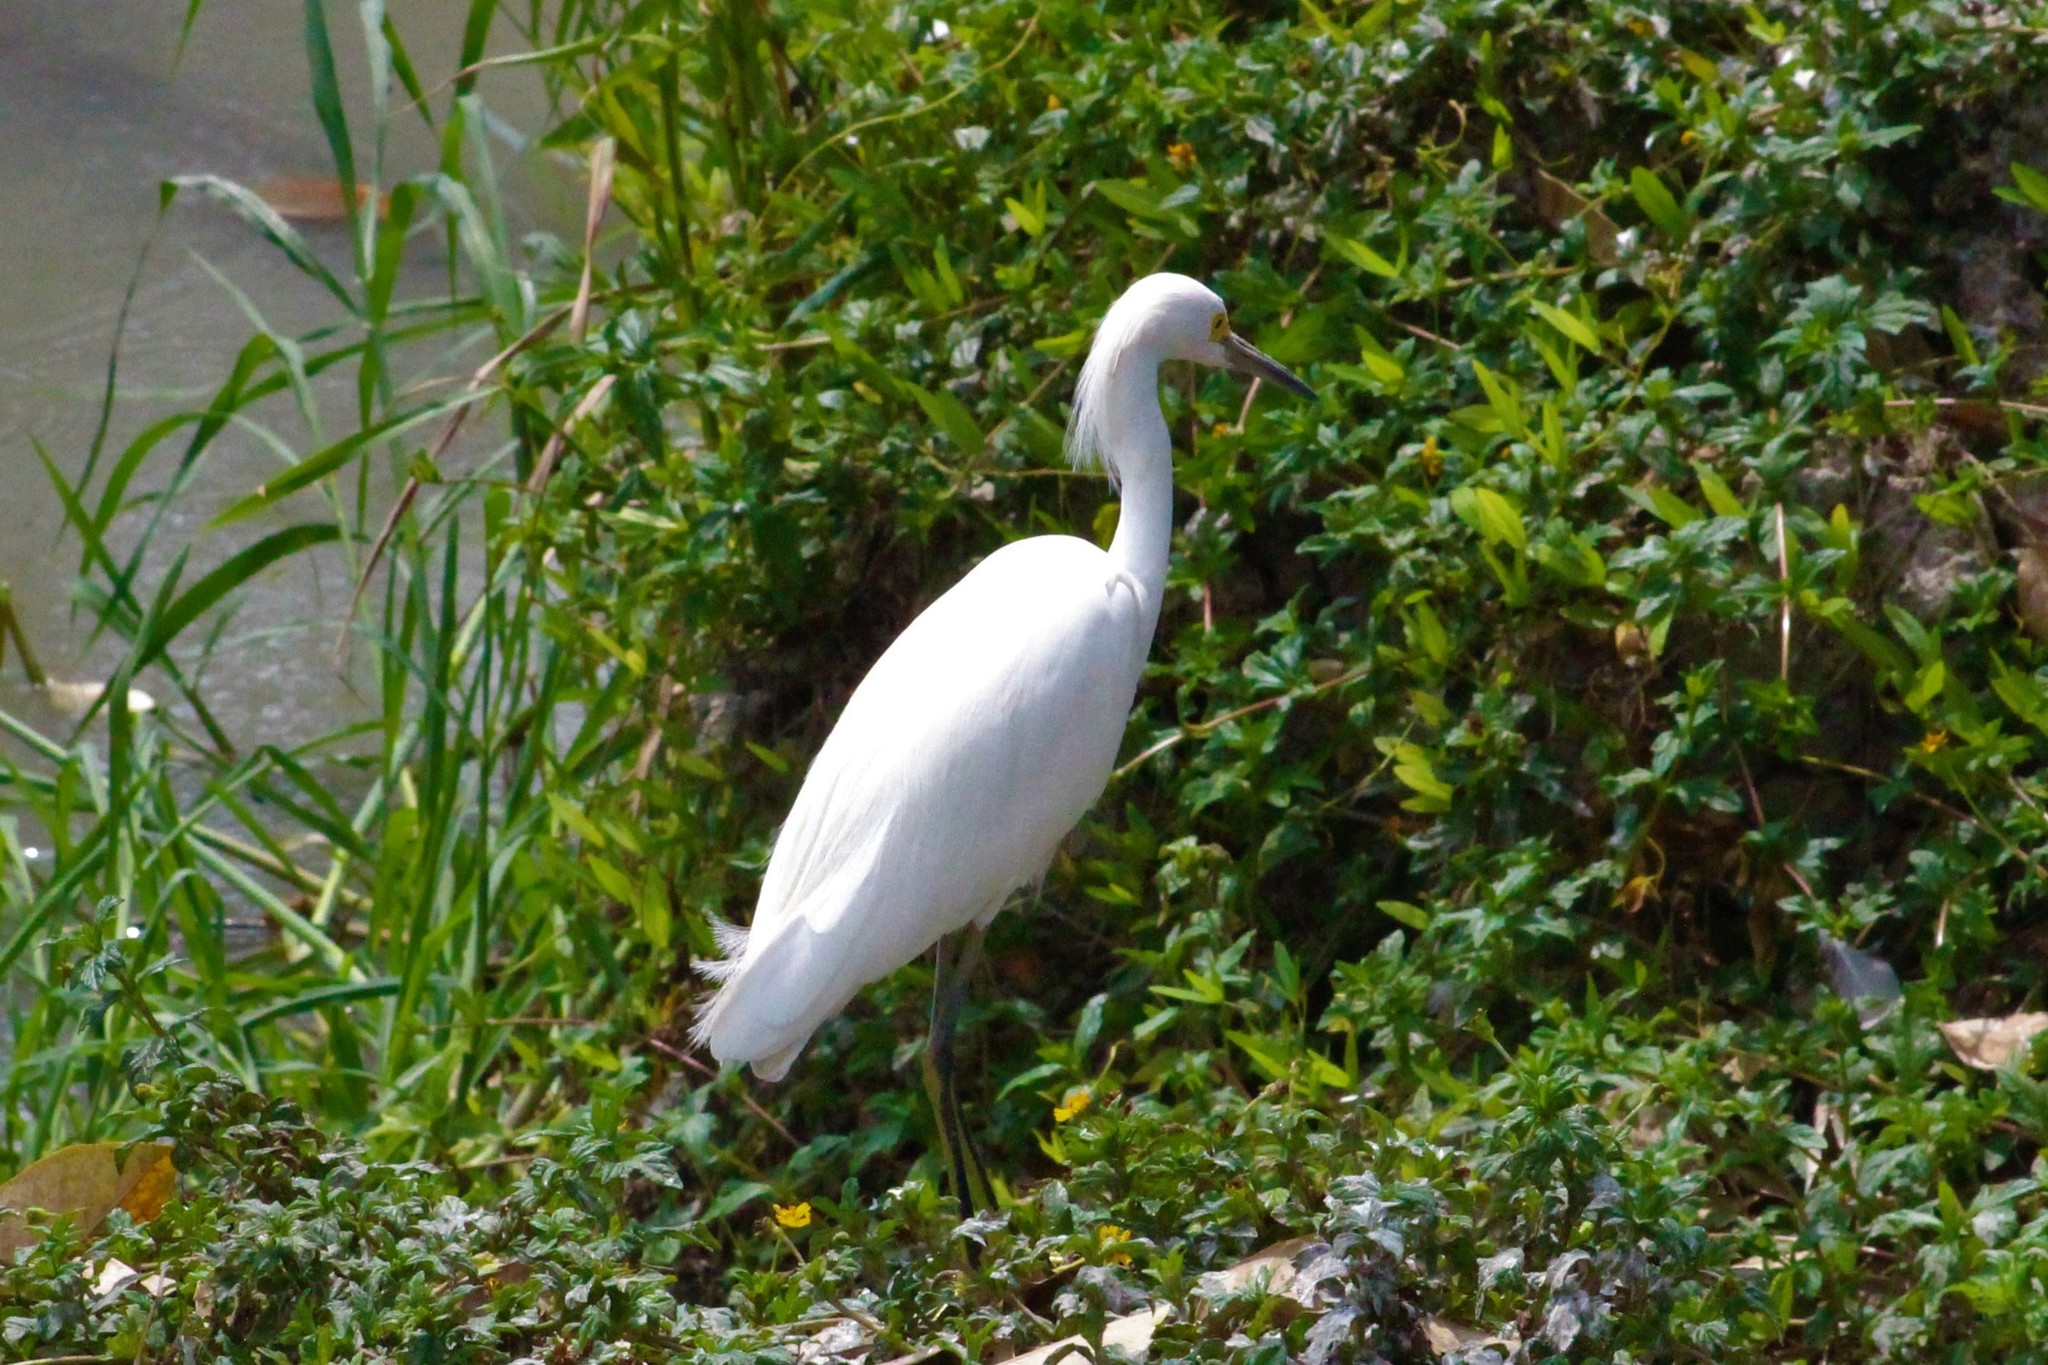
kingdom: Animalia
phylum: Chordata
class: Aves
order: Pelecaniformes
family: Ardeidae
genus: Egretta
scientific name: Egretta thula
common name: Snowy egret
